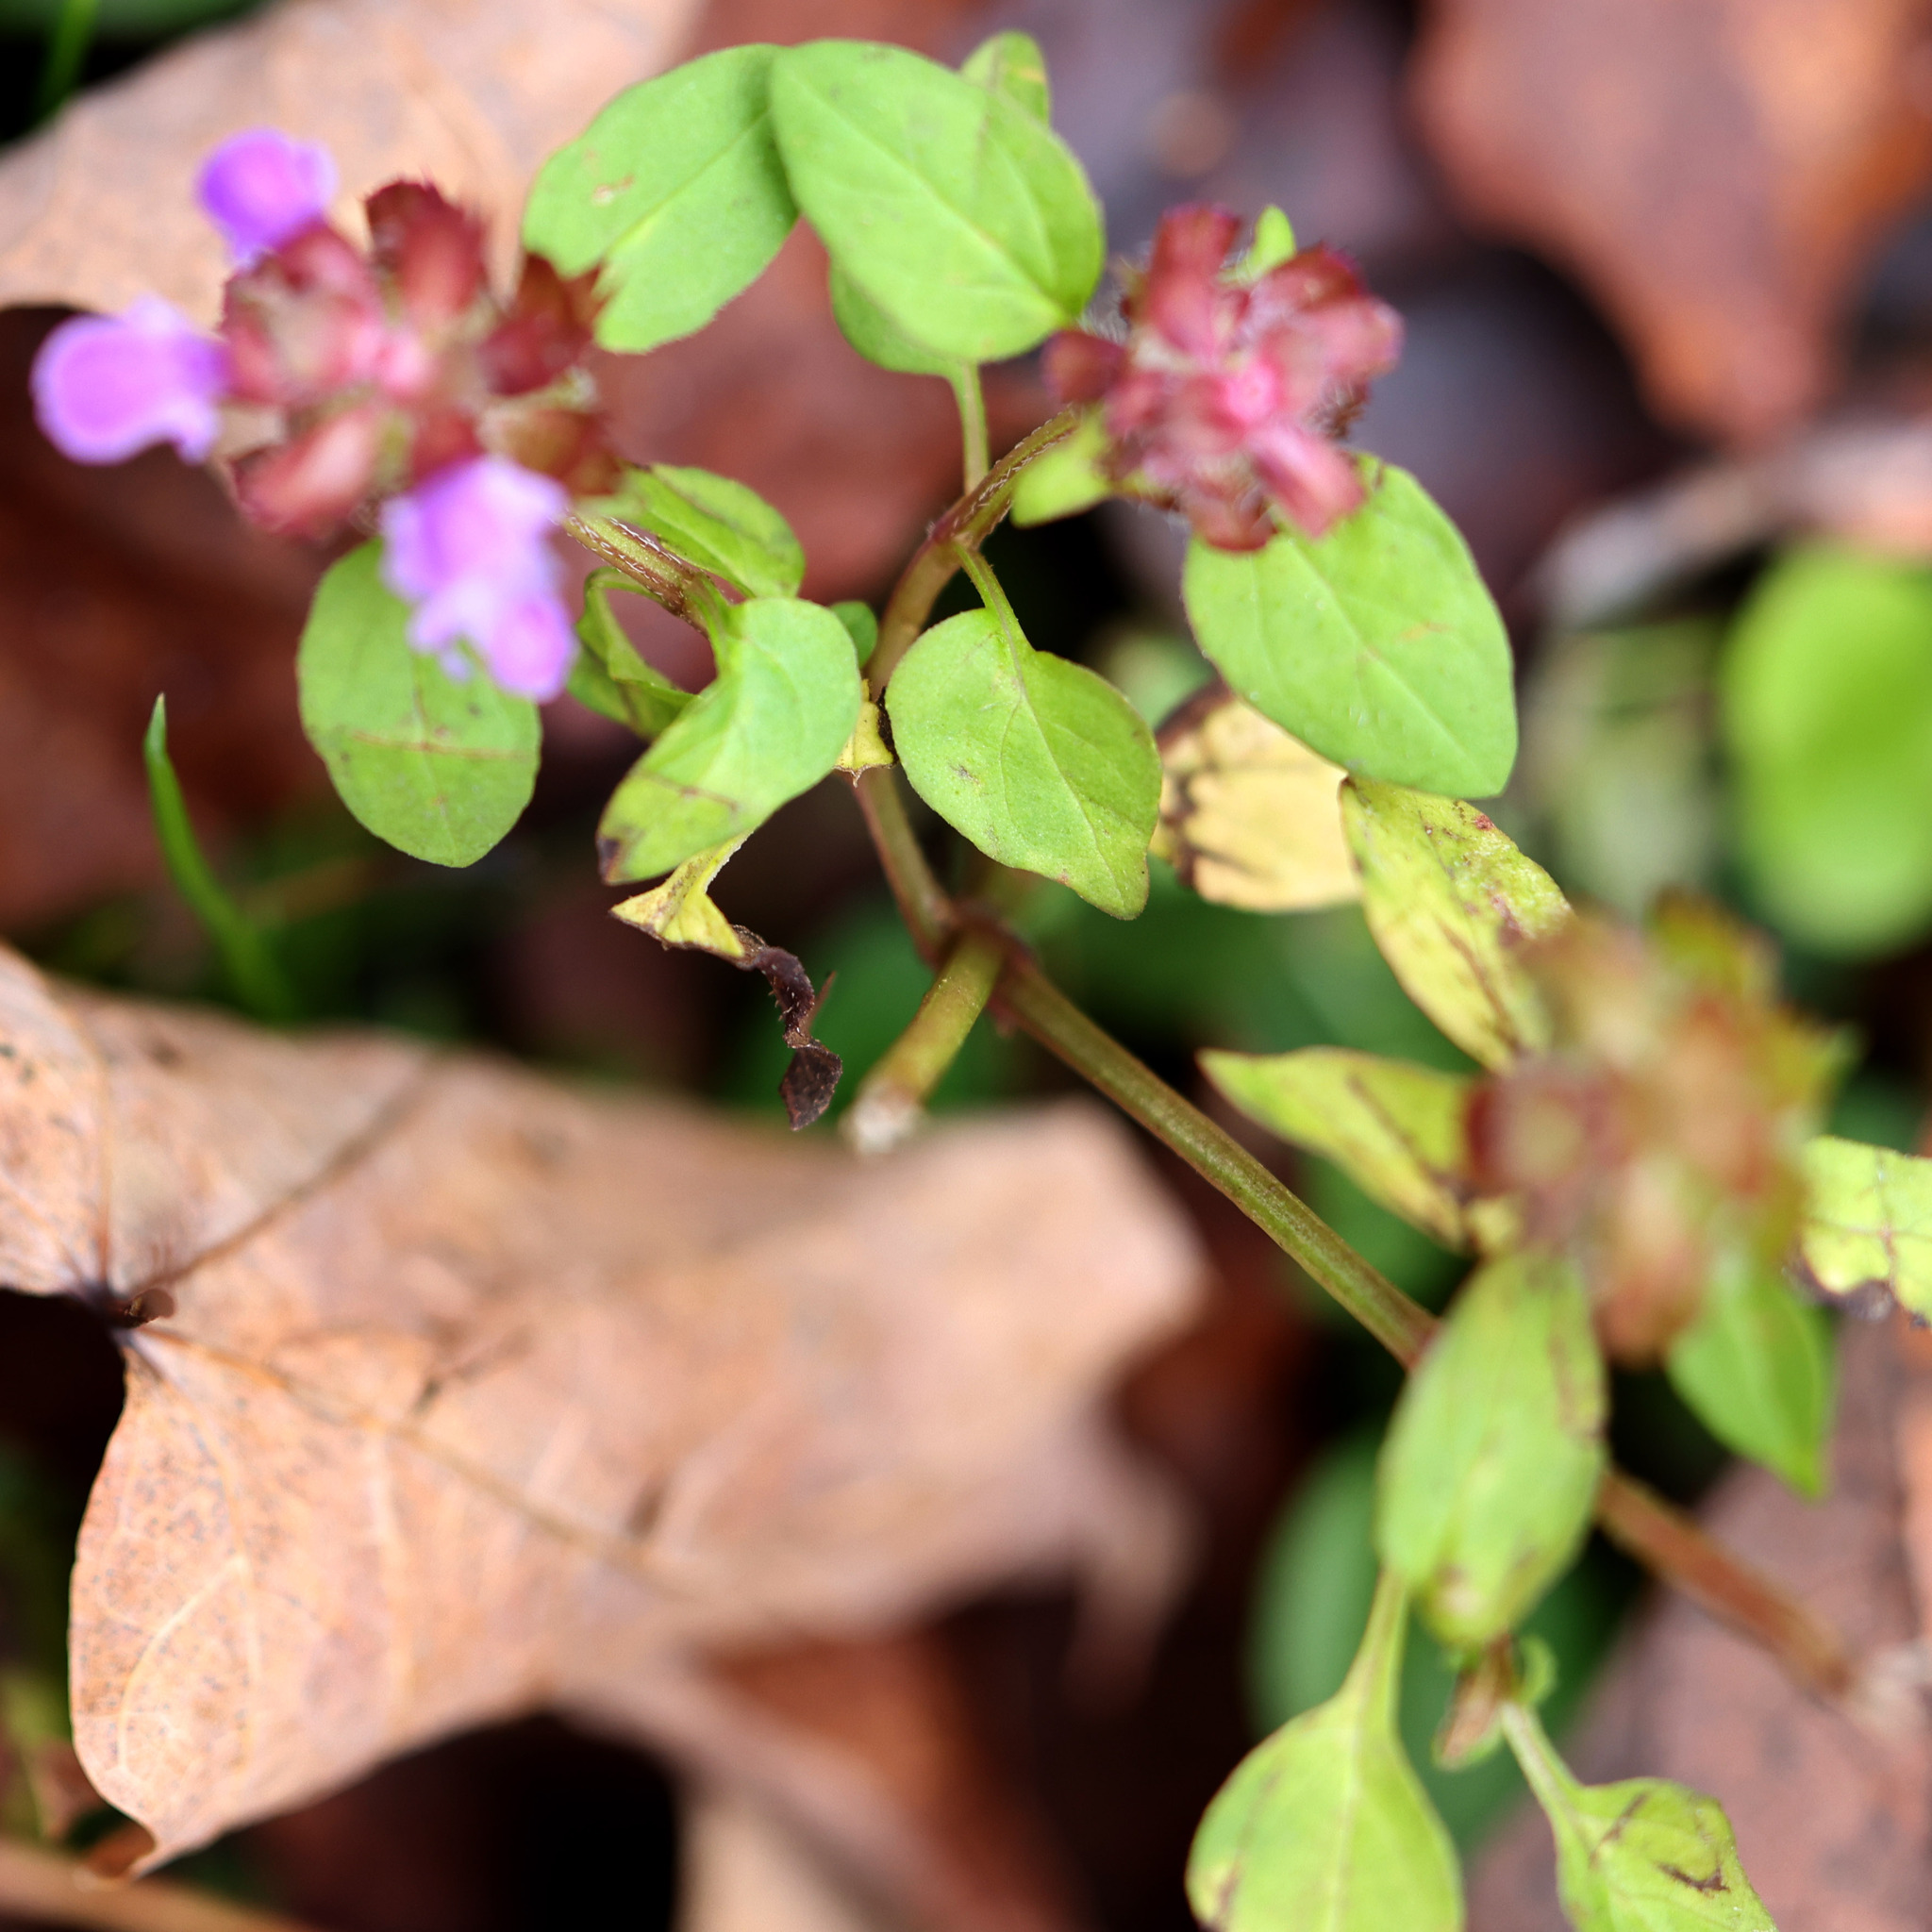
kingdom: Plantae
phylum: Tracheophyta
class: Magnoliopsida
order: Lamiales
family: Lamiaceae
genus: Prunella
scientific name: Prunella vulgaris
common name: Heal-all
